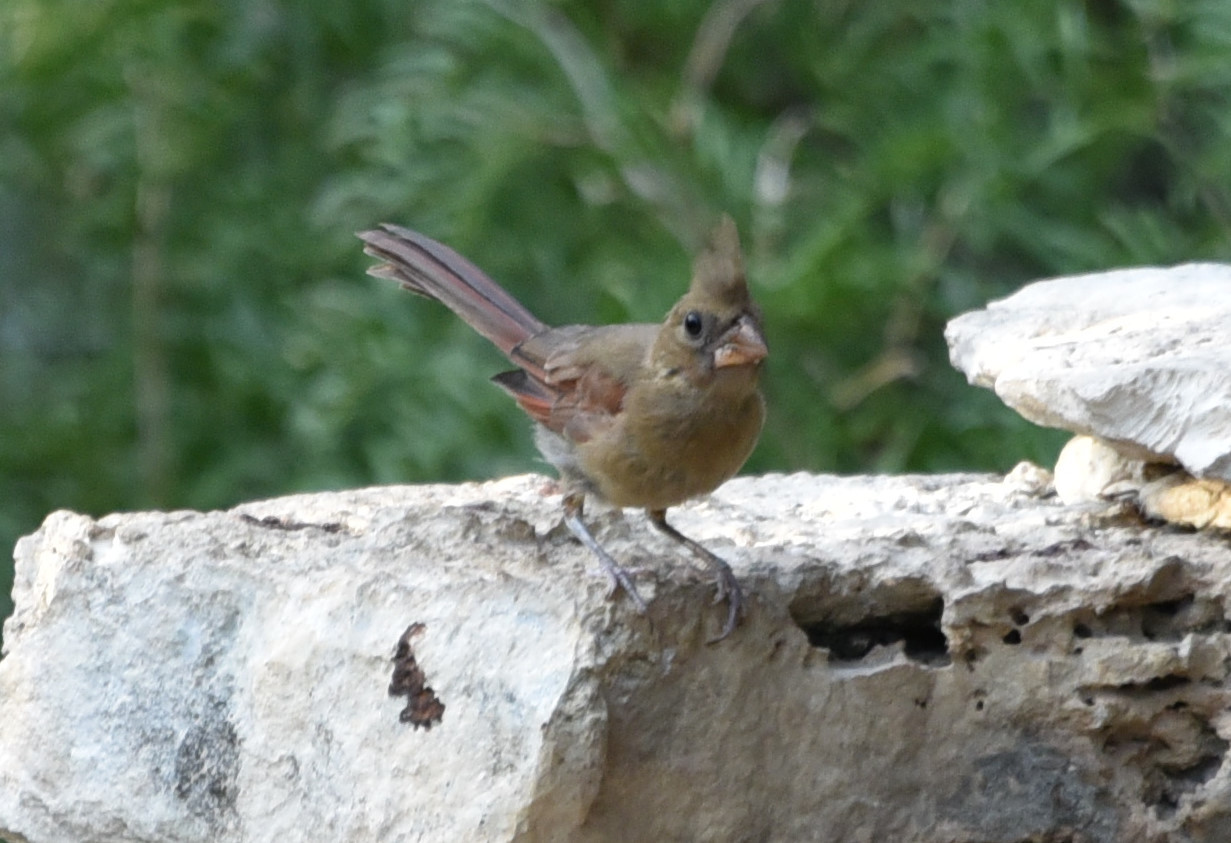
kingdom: Animalia
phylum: Chordata
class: Aves
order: Passeriformes
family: Cardinalidae
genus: Cardinalis
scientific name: Cardinalis cardinalis
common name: Northern cardinal
